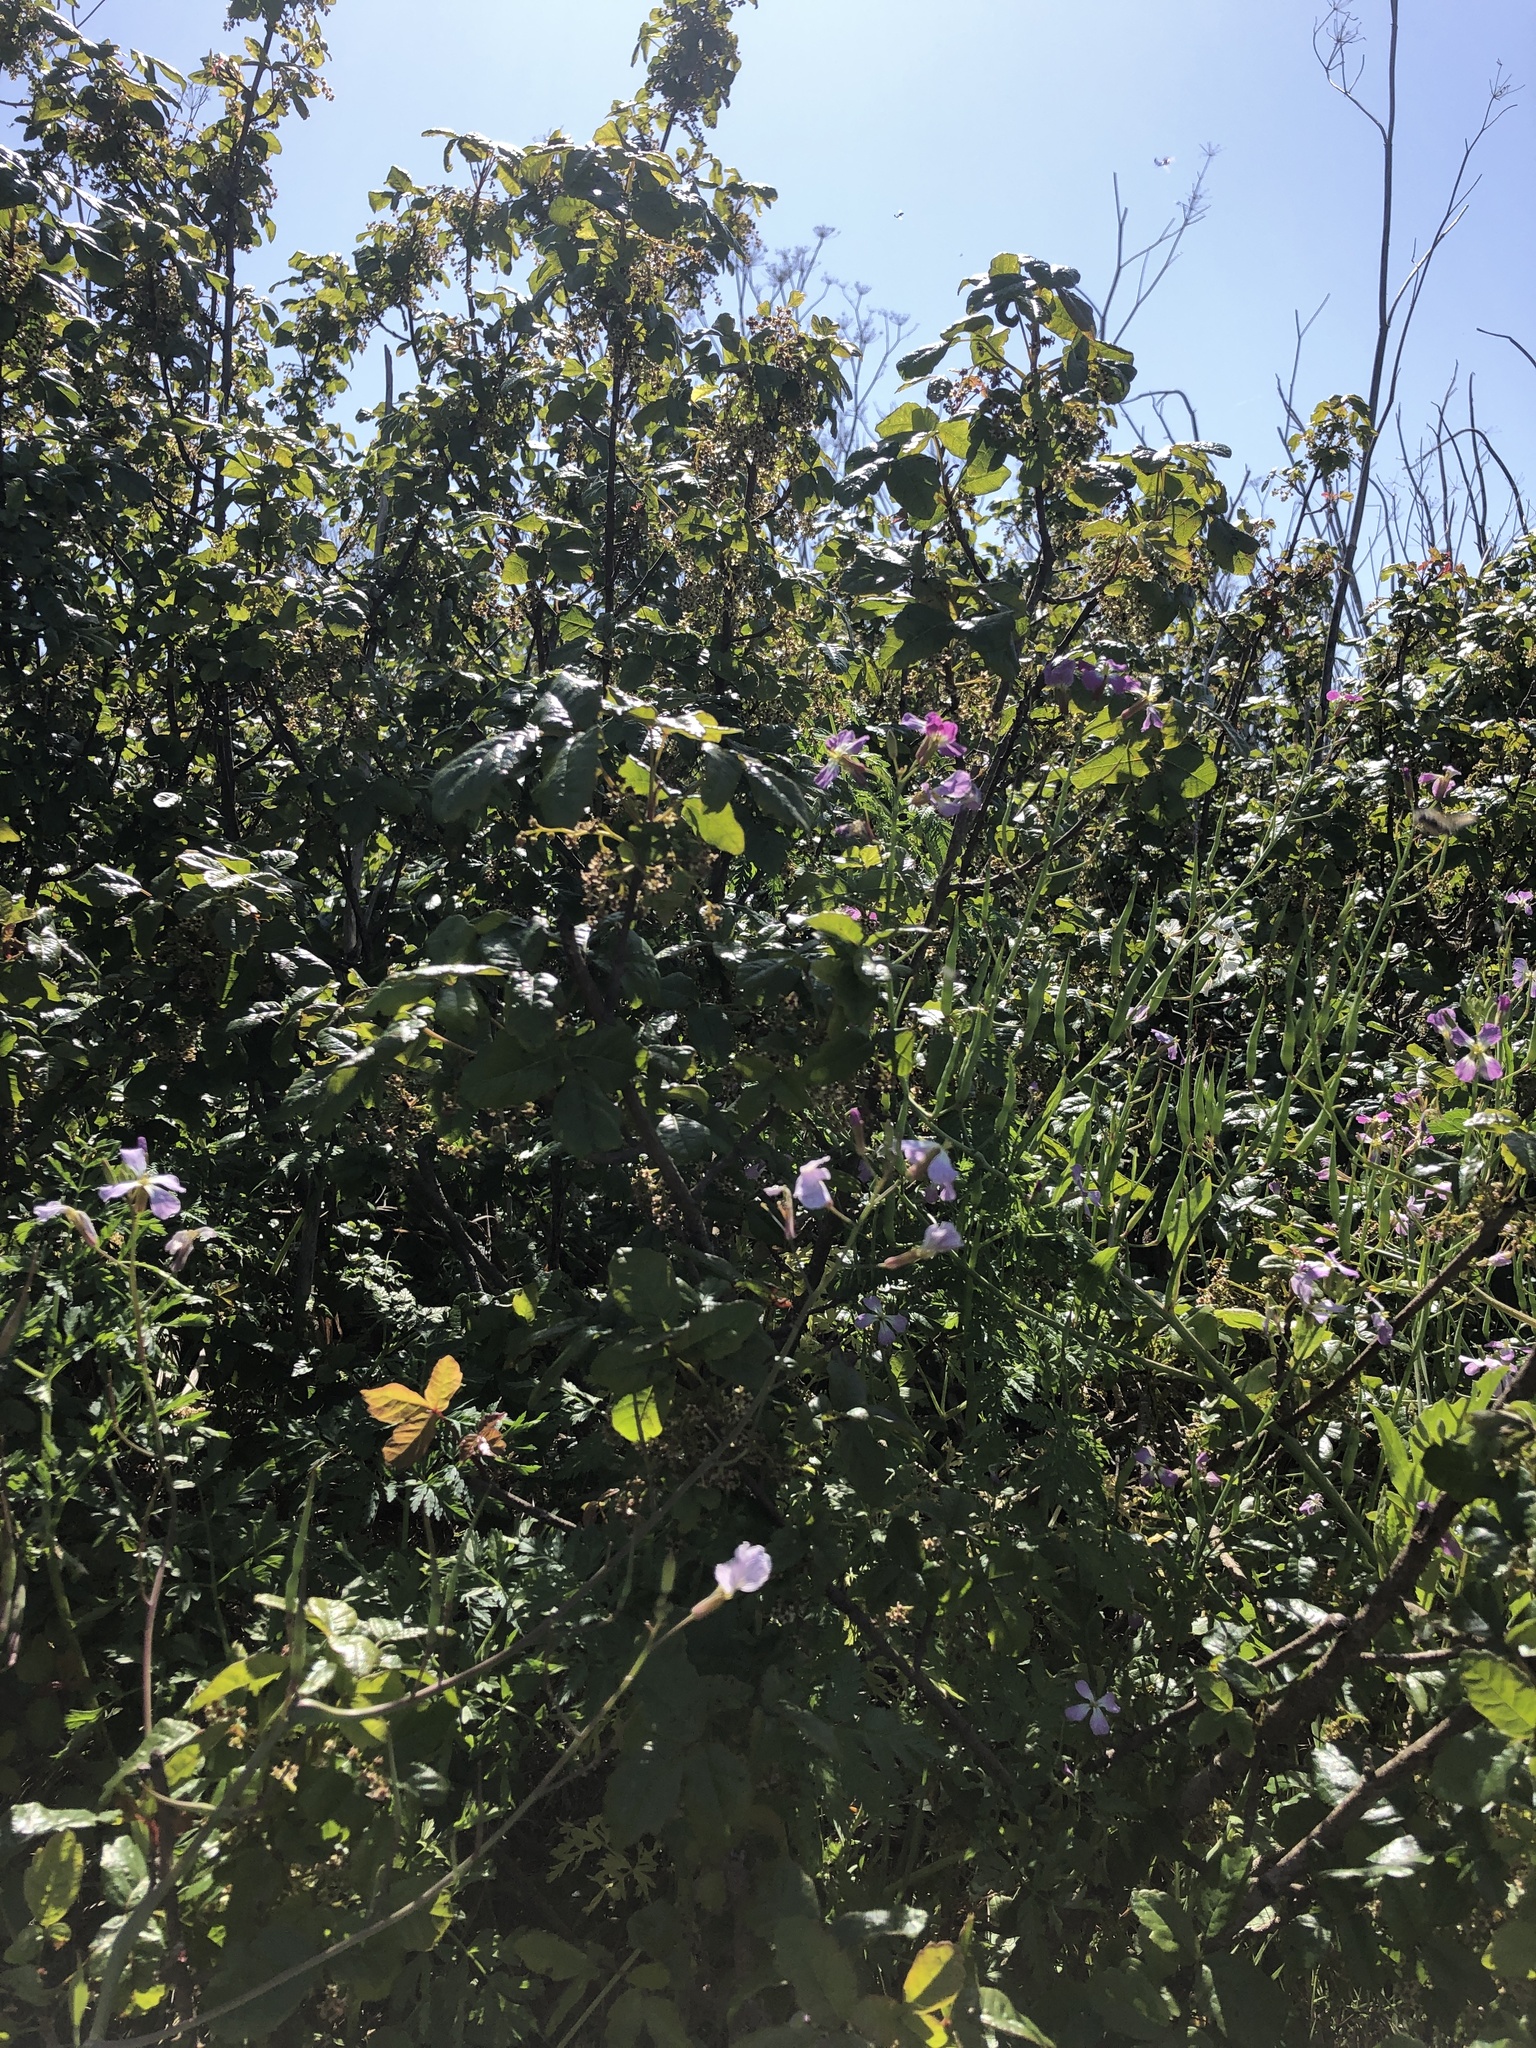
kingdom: Plantae
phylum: Tracheophyta
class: Magnoliopsida
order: Sapindales
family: Anacardiaceae
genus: Toxicodendron
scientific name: Toxicodendron diversilobum
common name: Pacific poison-oak
